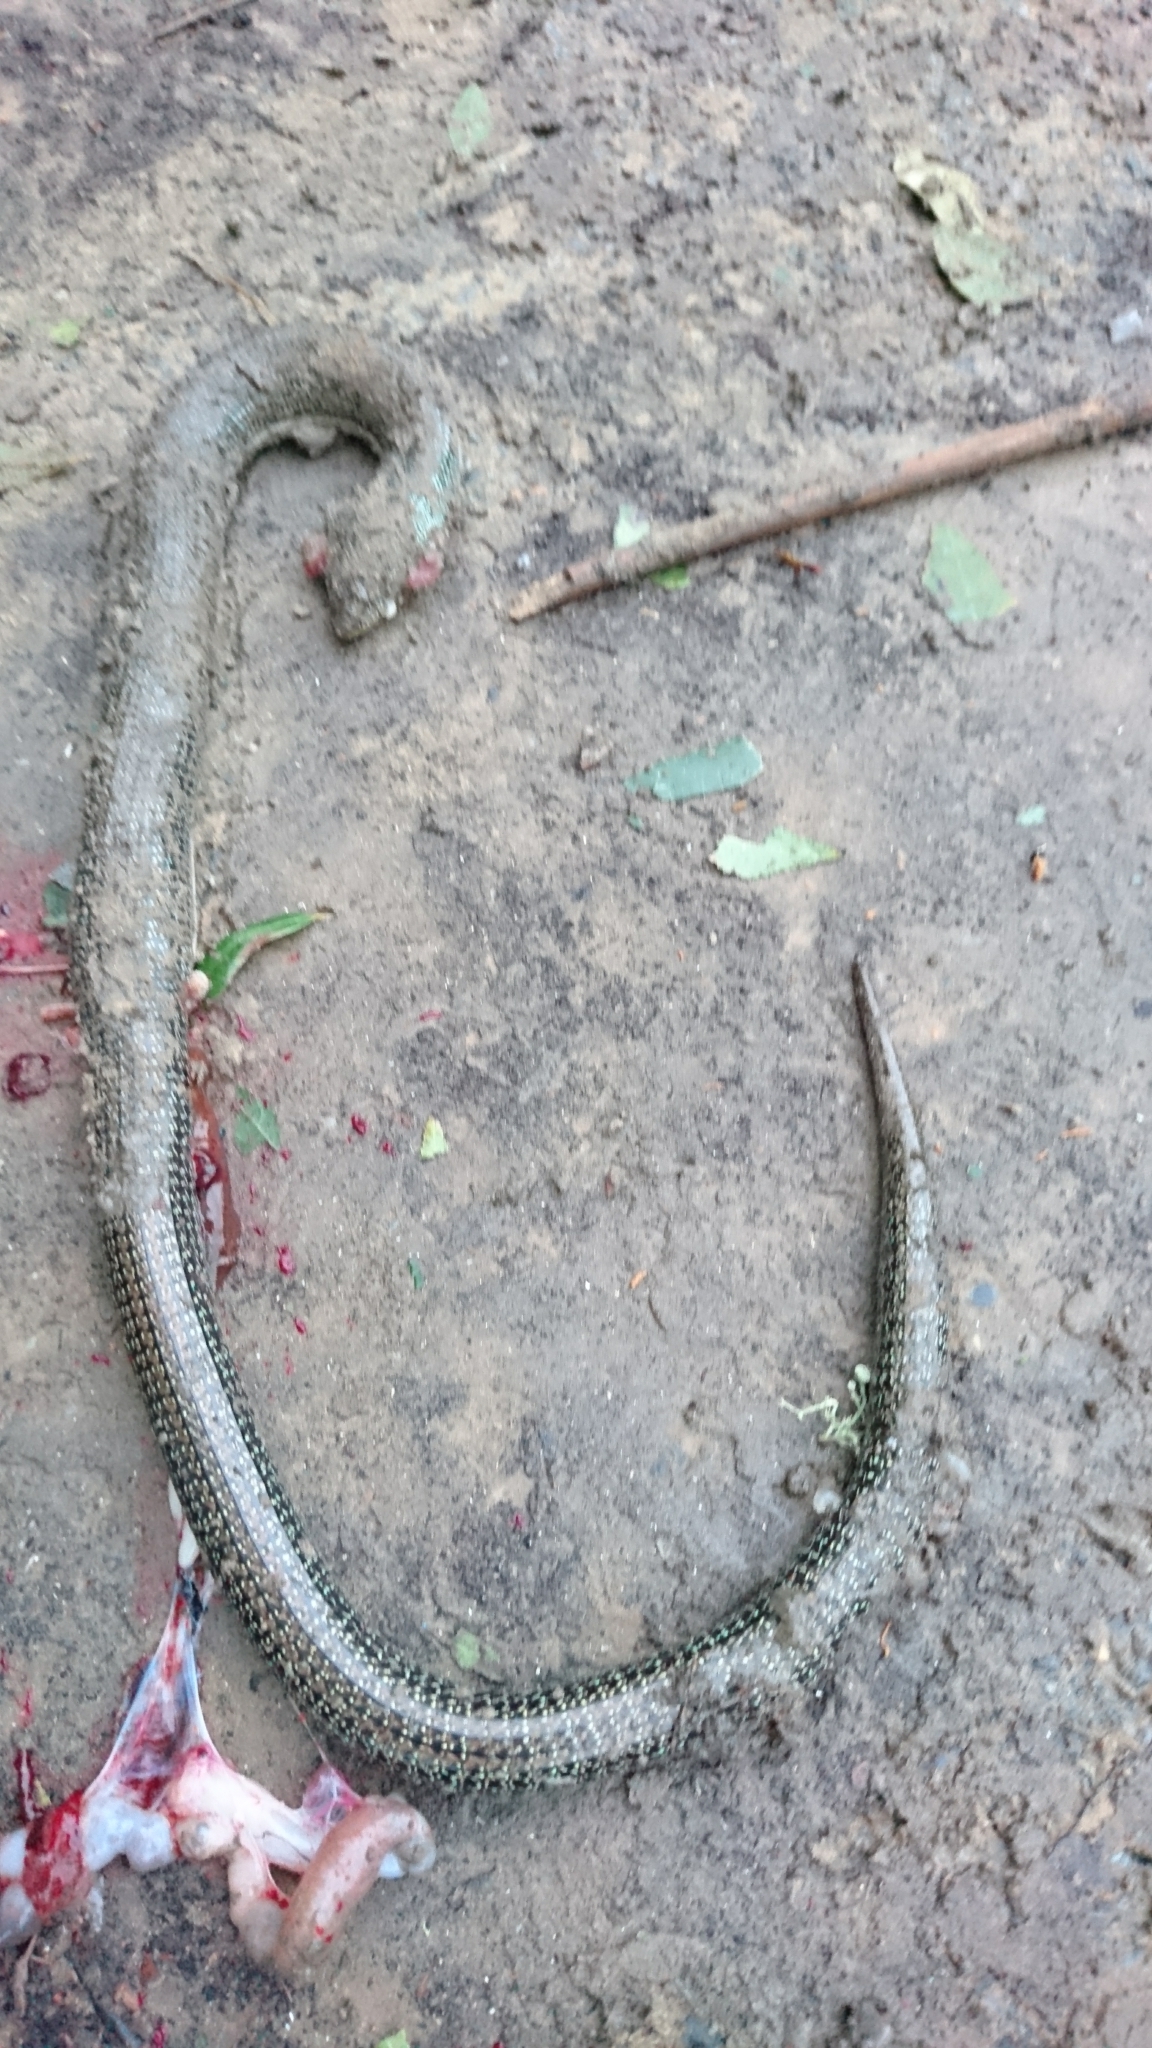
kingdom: Animalia
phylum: Chordata
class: Squamata
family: Anguidae
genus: Ophisaurus
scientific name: Ophisaurus ventralis
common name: Eastern glass lizard
